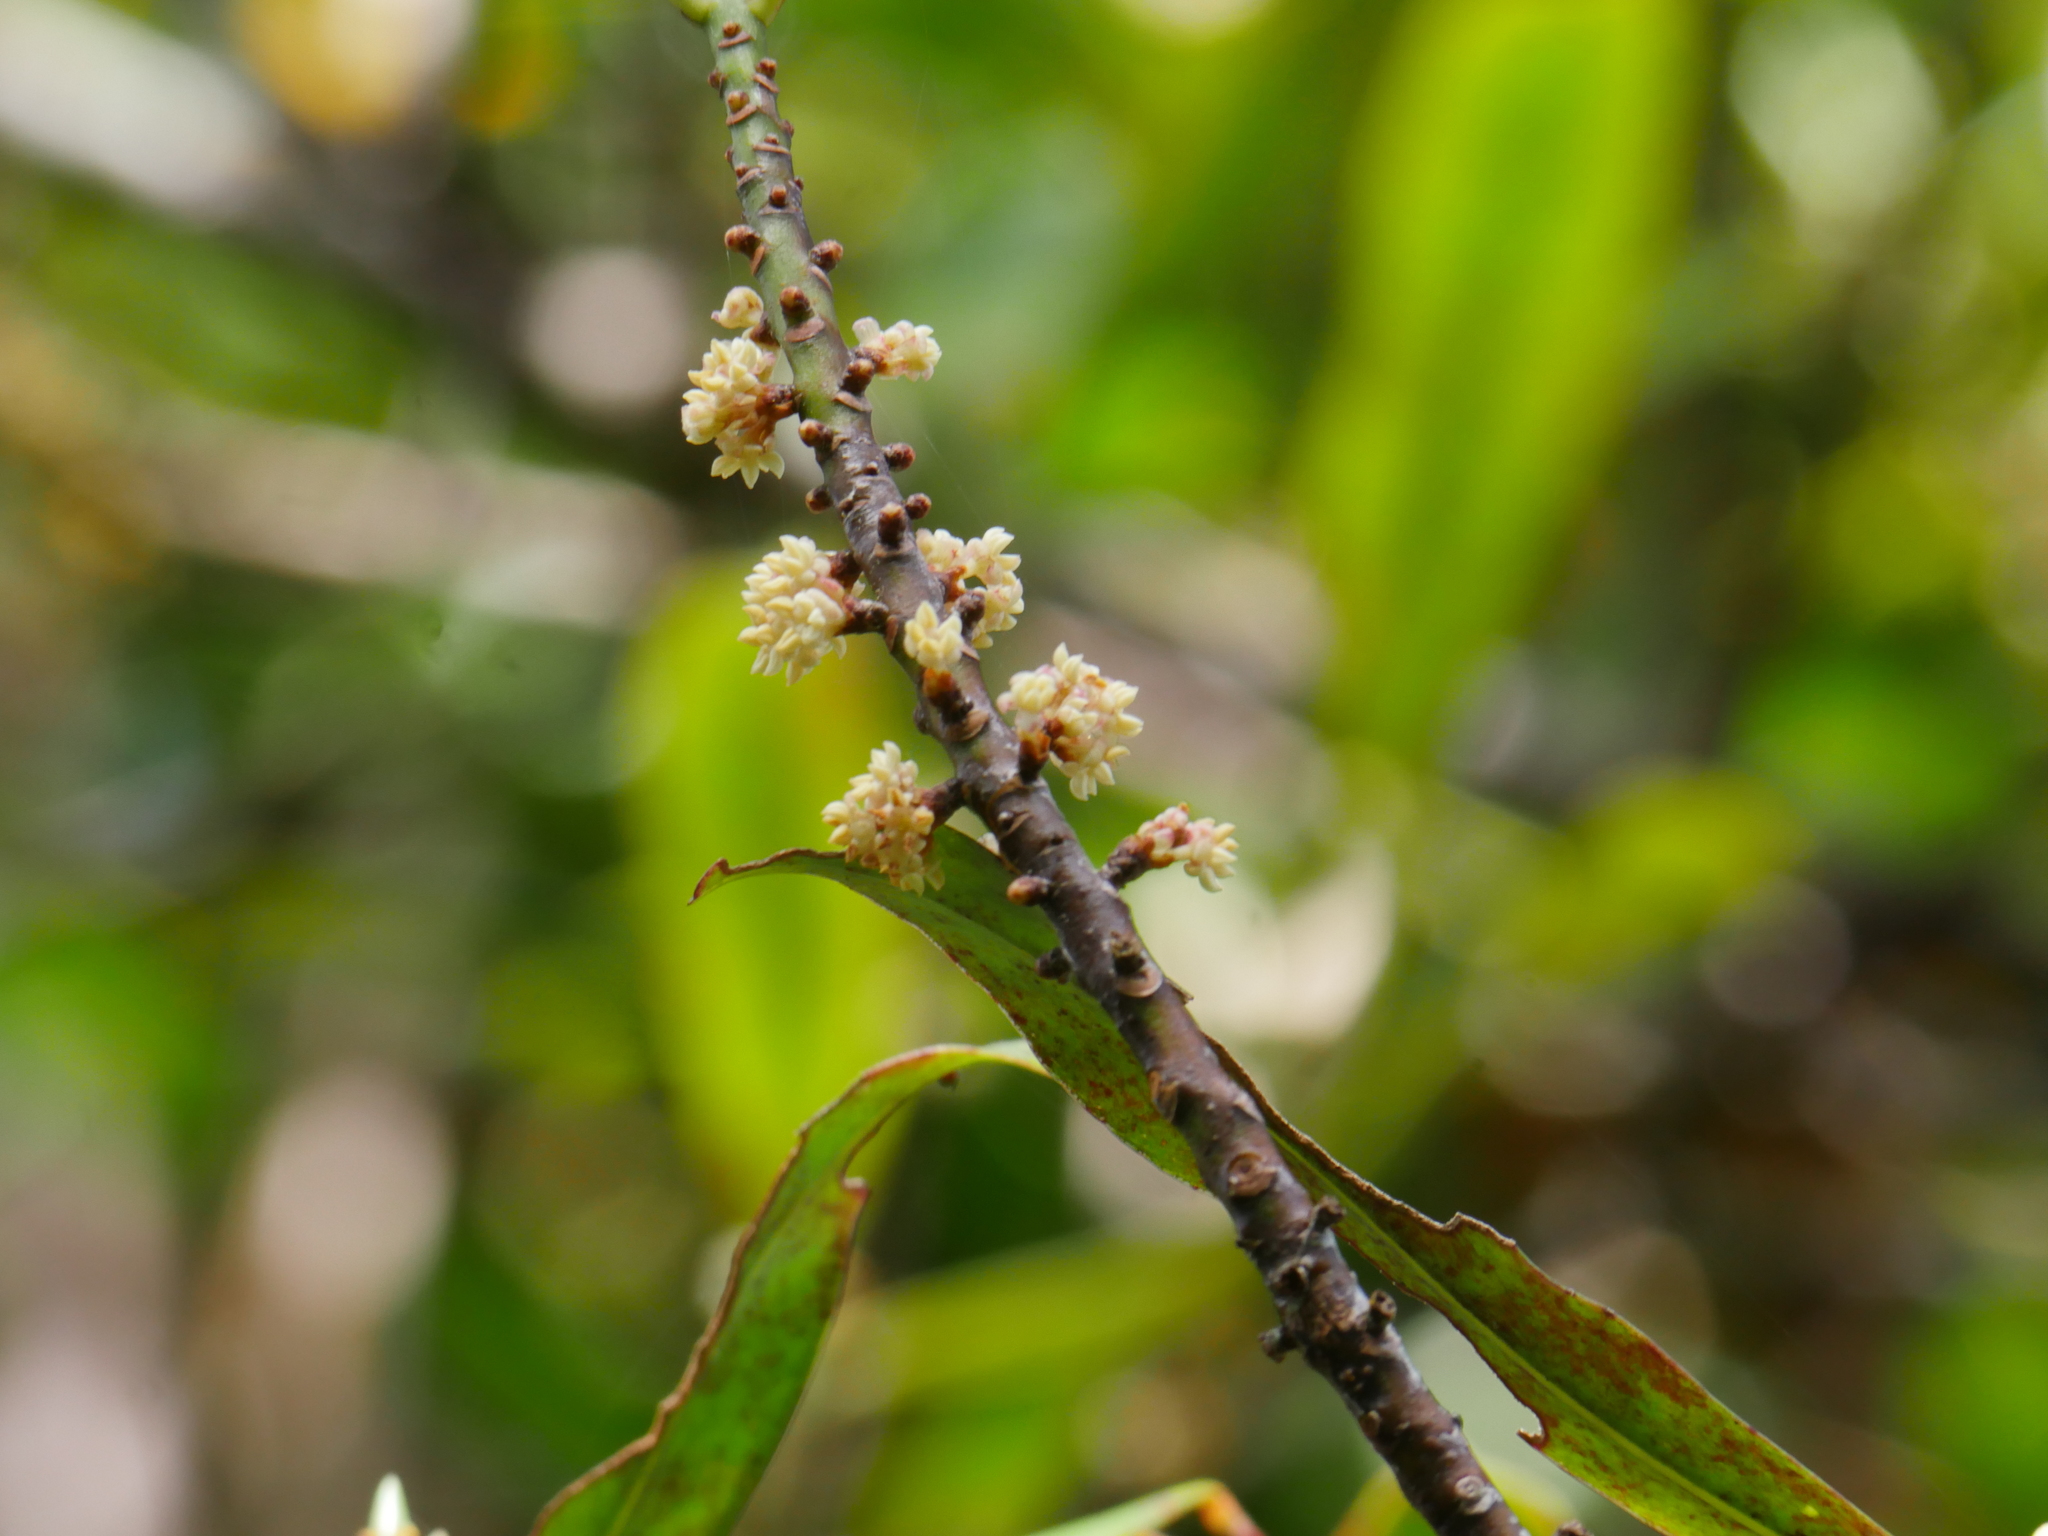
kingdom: Plantae
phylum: Tracheophyta
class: Magnoliopsida
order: Ericales
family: Primulaceae
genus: Myrsine
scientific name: Myrsine salicina
